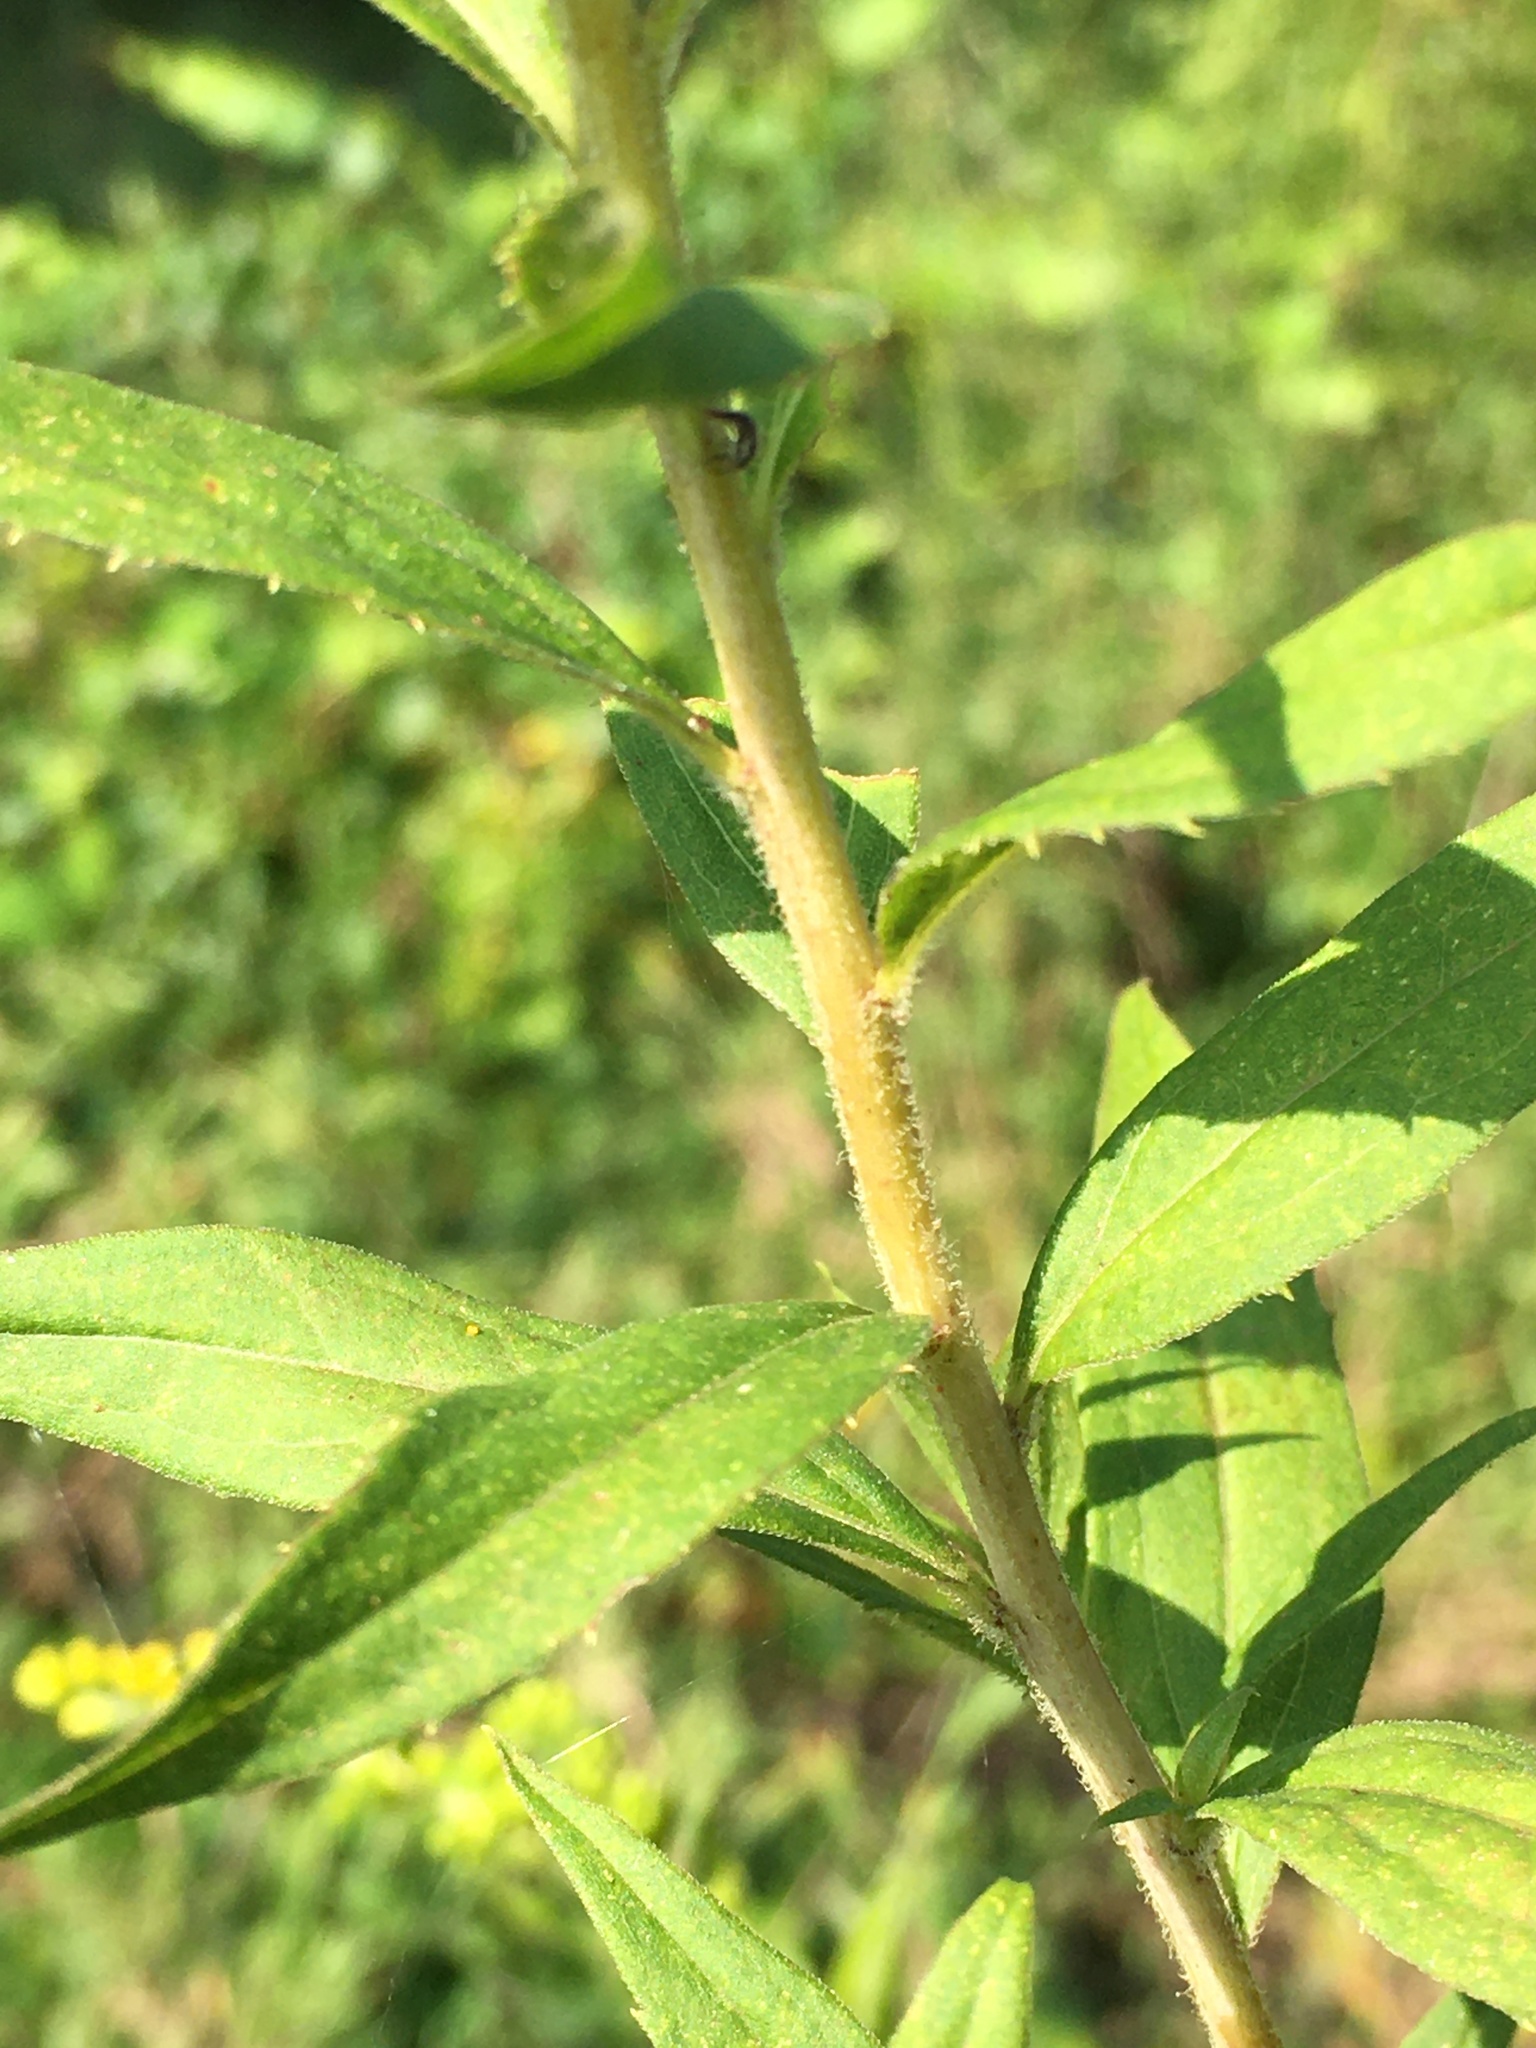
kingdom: Plantae
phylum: Tracheophyta
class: Magnoliopsida
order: Asterales
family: Asteraceae
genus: Solidago
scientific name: Solidago altissima
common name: Late goldenrod
